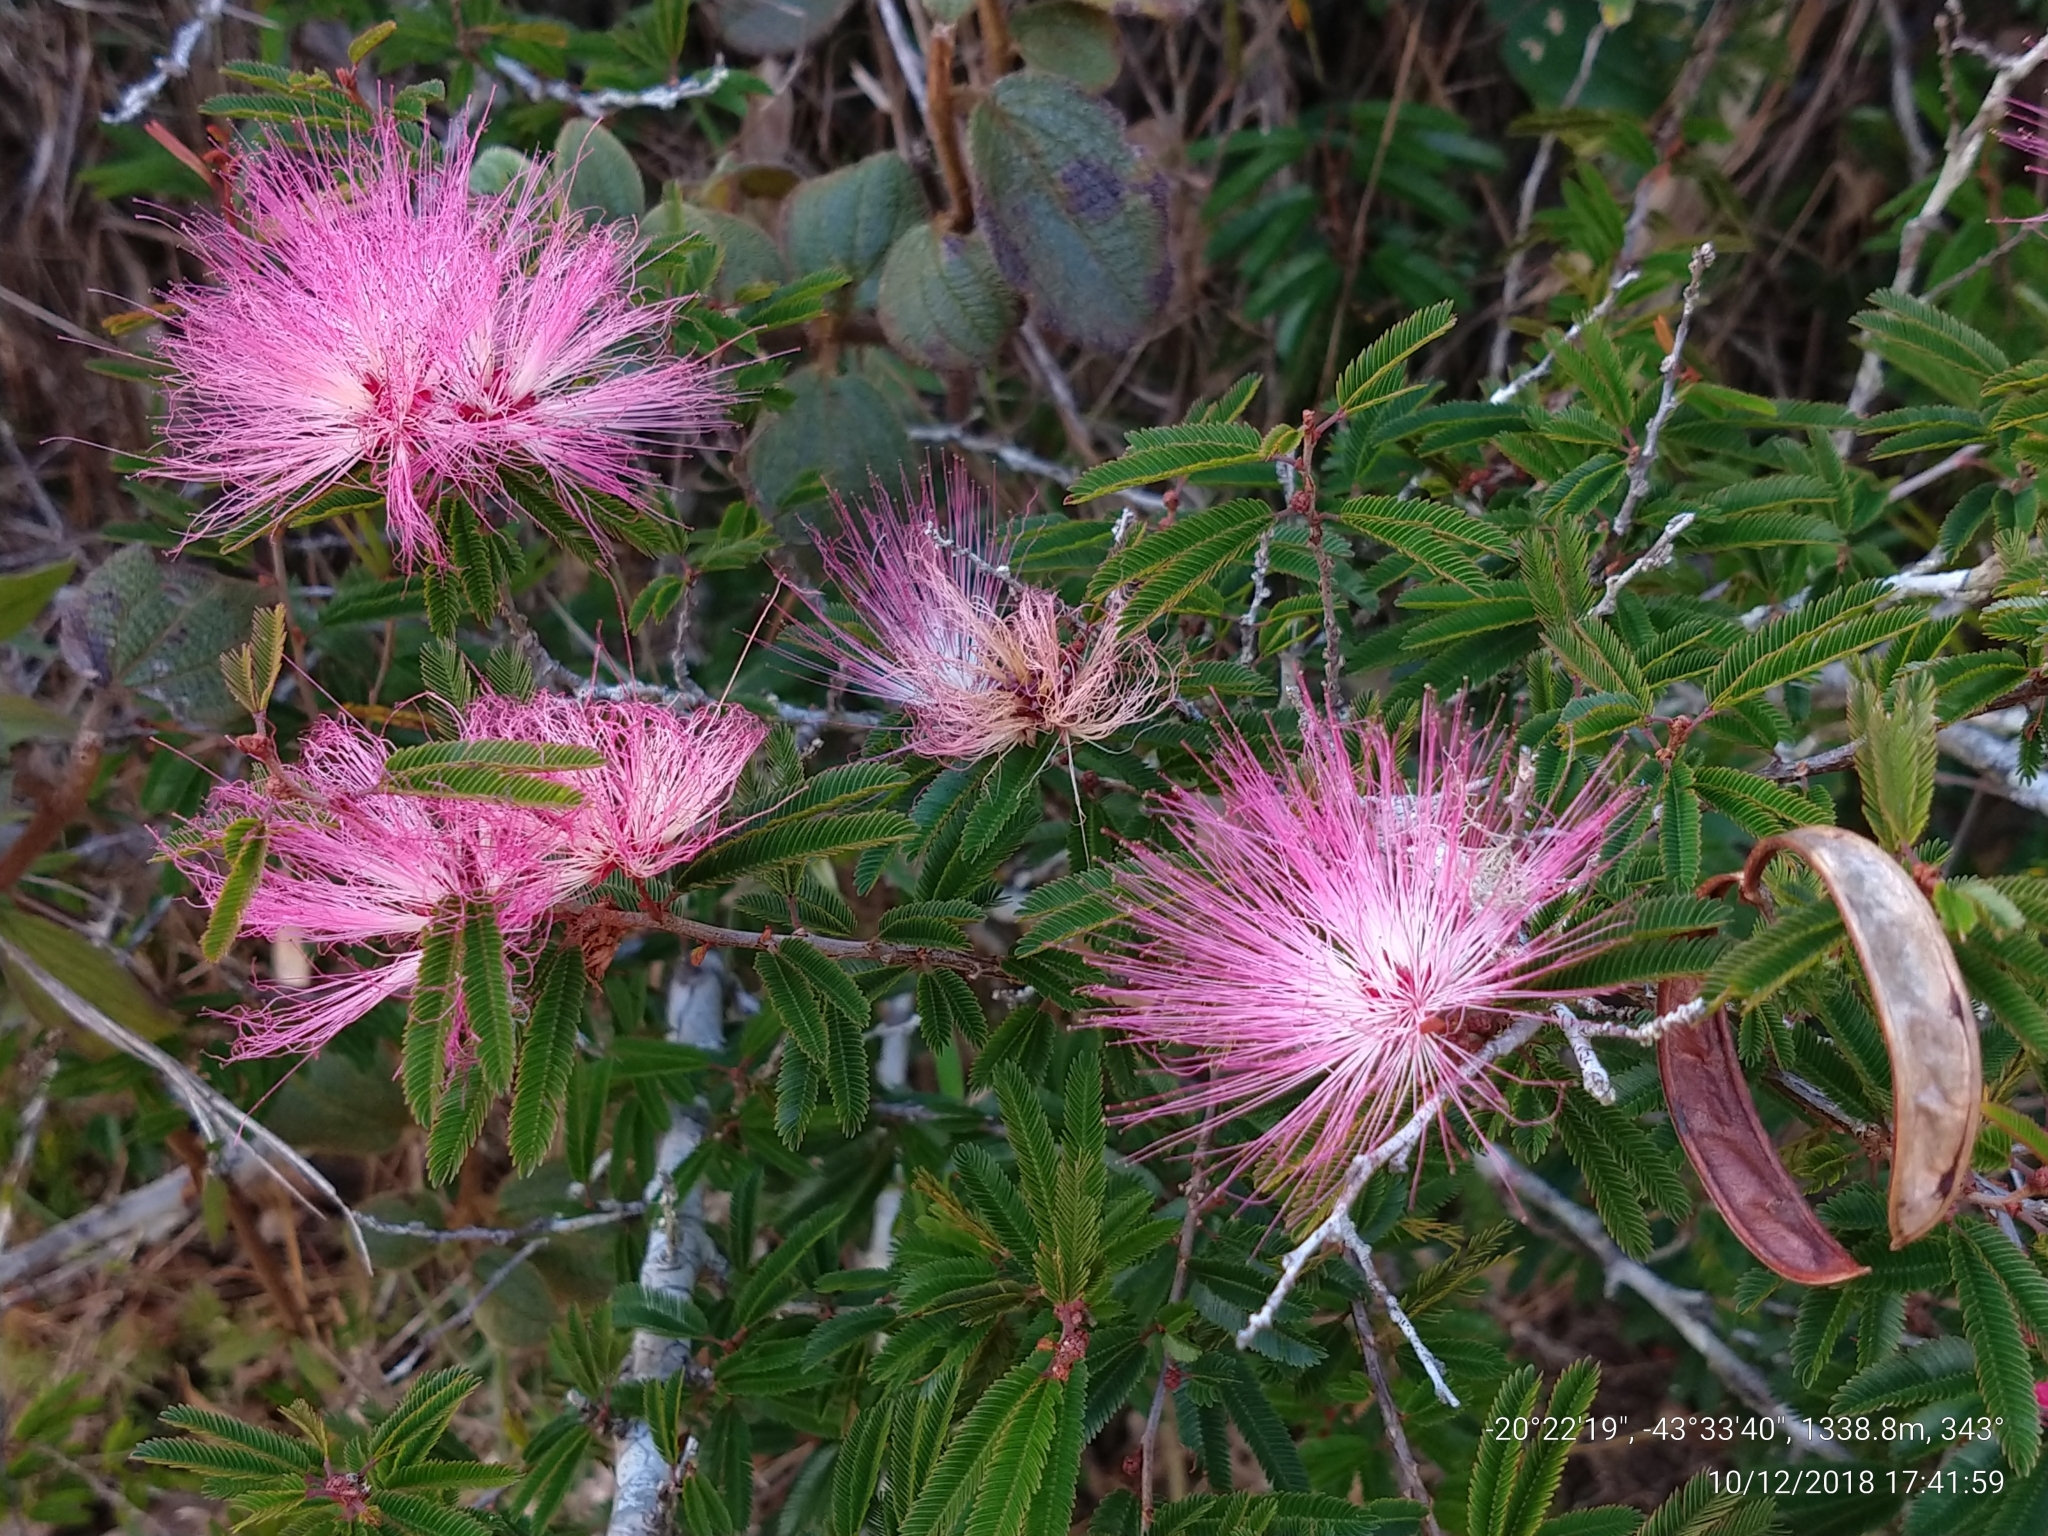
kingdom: Plantae
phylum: Tracheophyta
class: Magnoliopsida
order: Fabales
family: Fabaceae
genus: Calliandra
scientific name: Calliandra selloi
